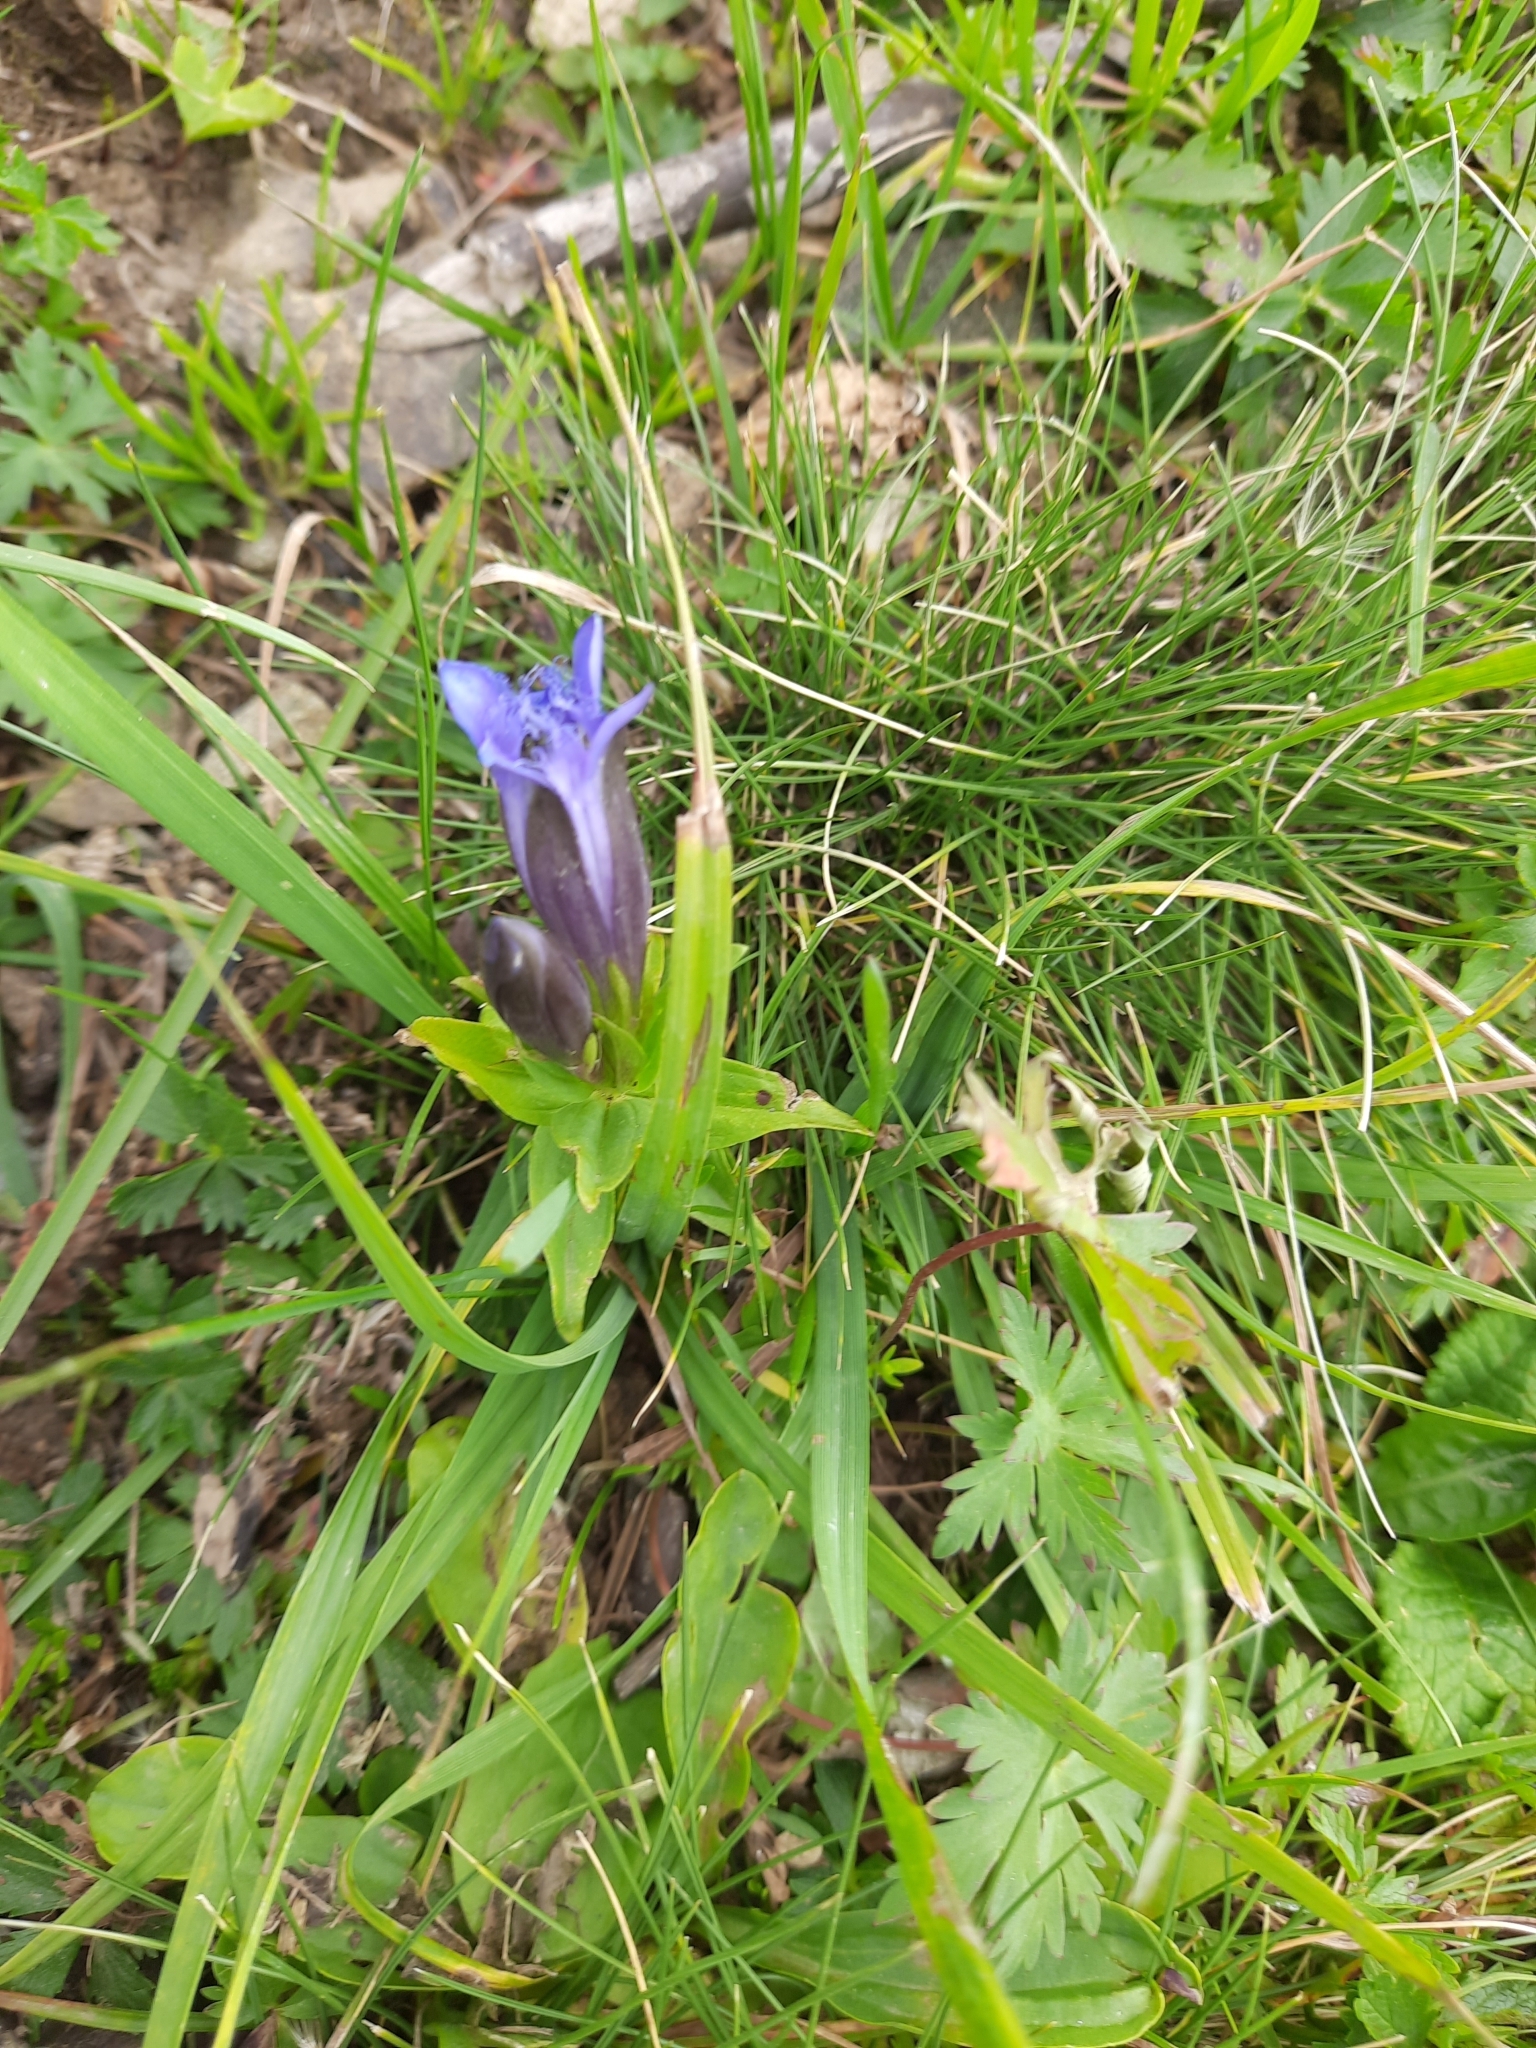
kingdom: Plantae
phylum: Tracheophyta
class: Magnoliopsida
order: Gentianales
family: Gentianaceae
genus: Gentiana
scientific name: Gentiana septemfida
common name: Crested gentian
